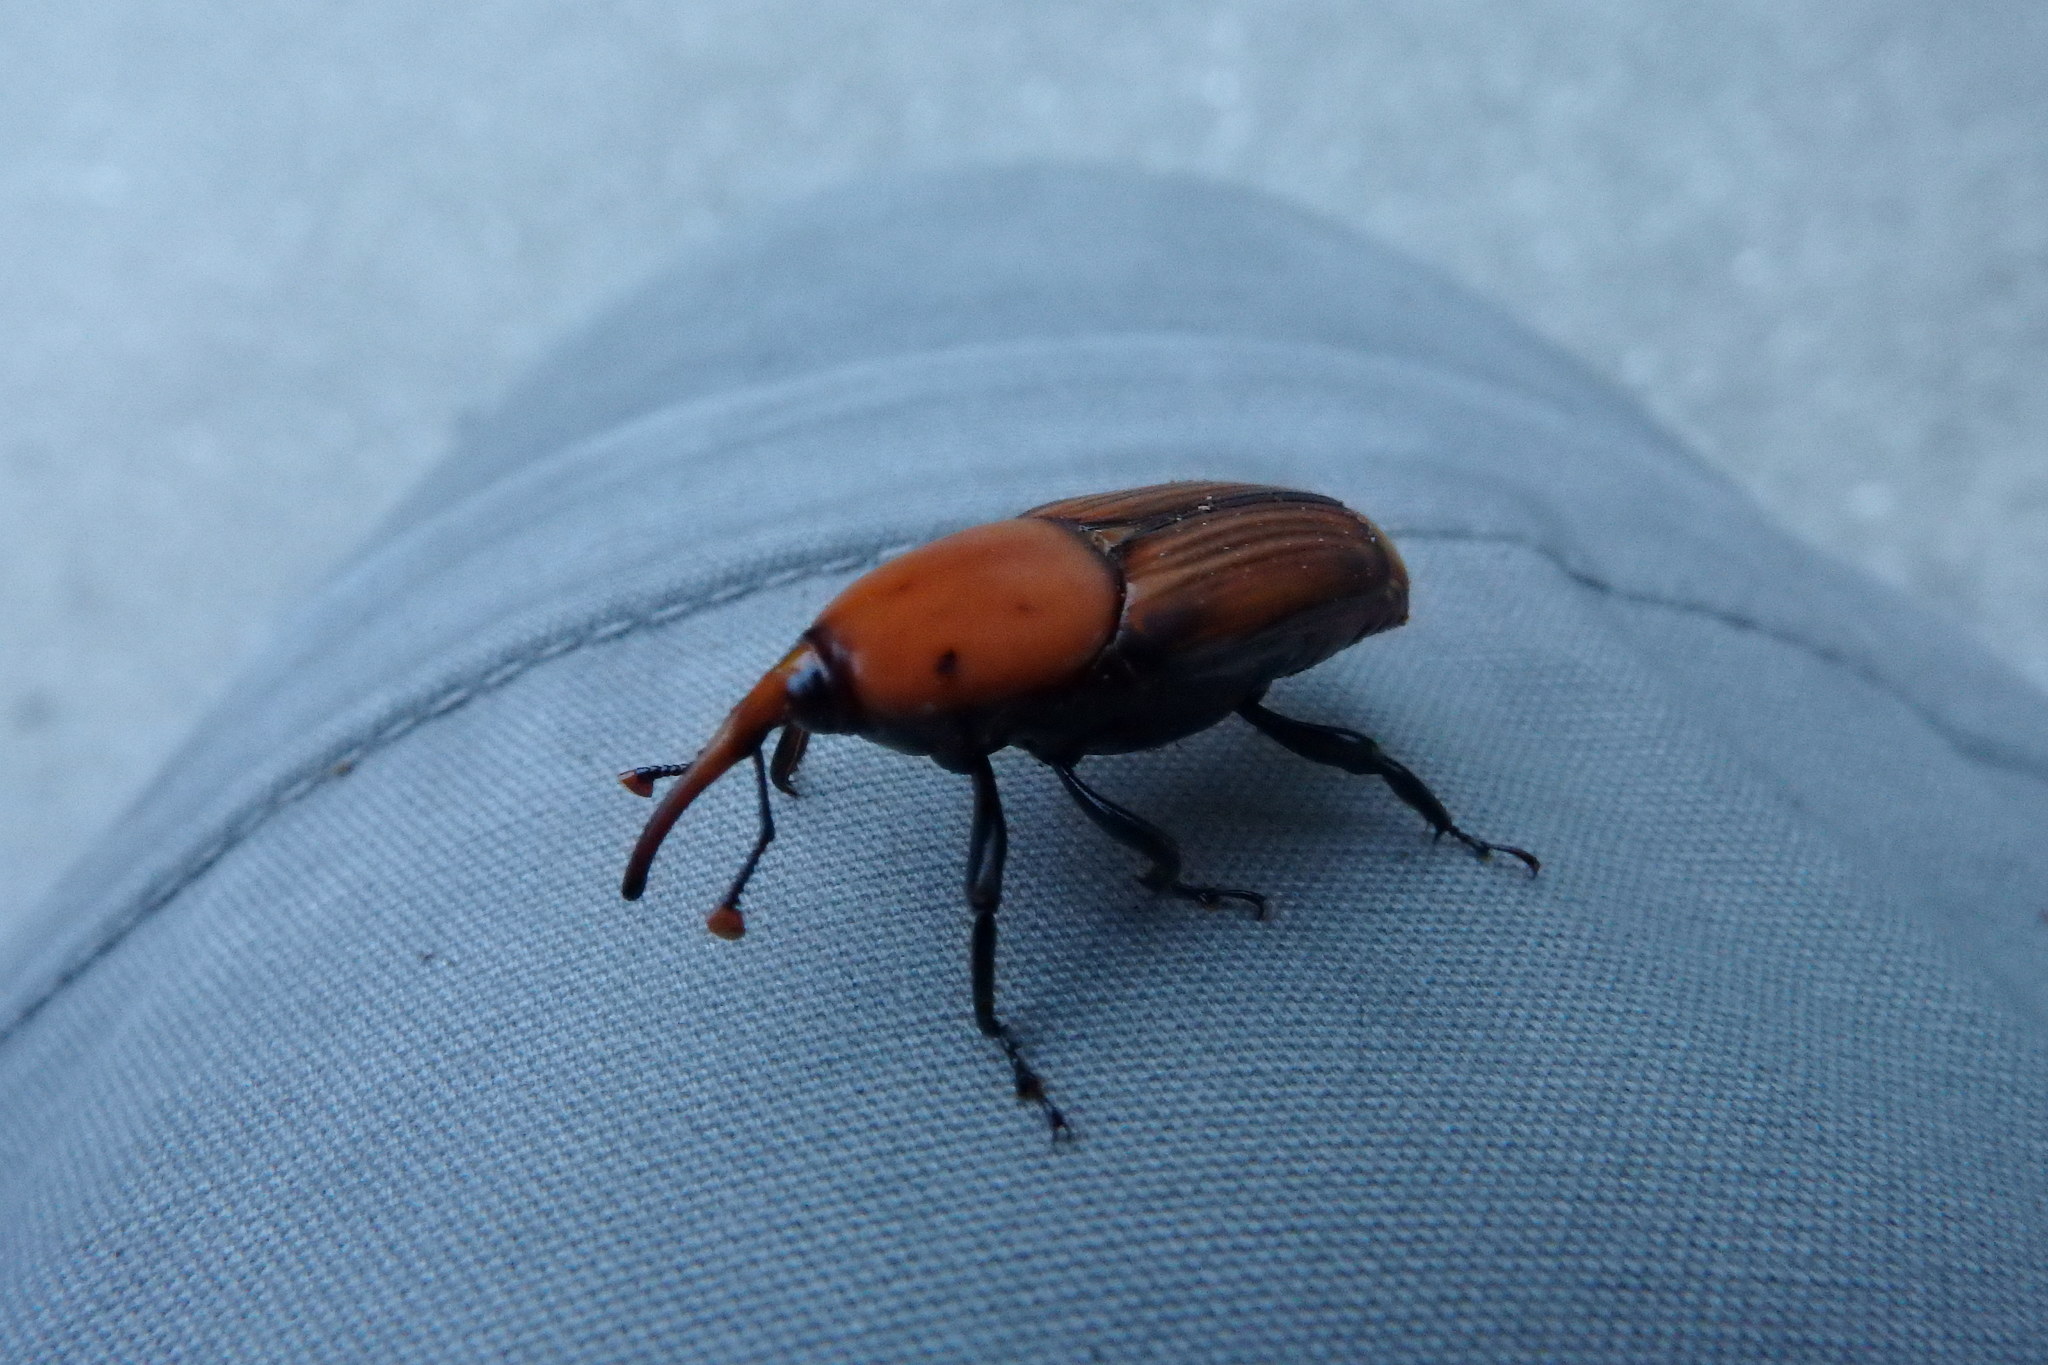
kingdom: Animalia
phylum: Arthropoda
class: Insecta
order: Coleoptera
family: Dryophthoridae
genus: Rhynchophorus
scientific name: Rhynchophorus ferrugineus
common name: Red palm weevil
